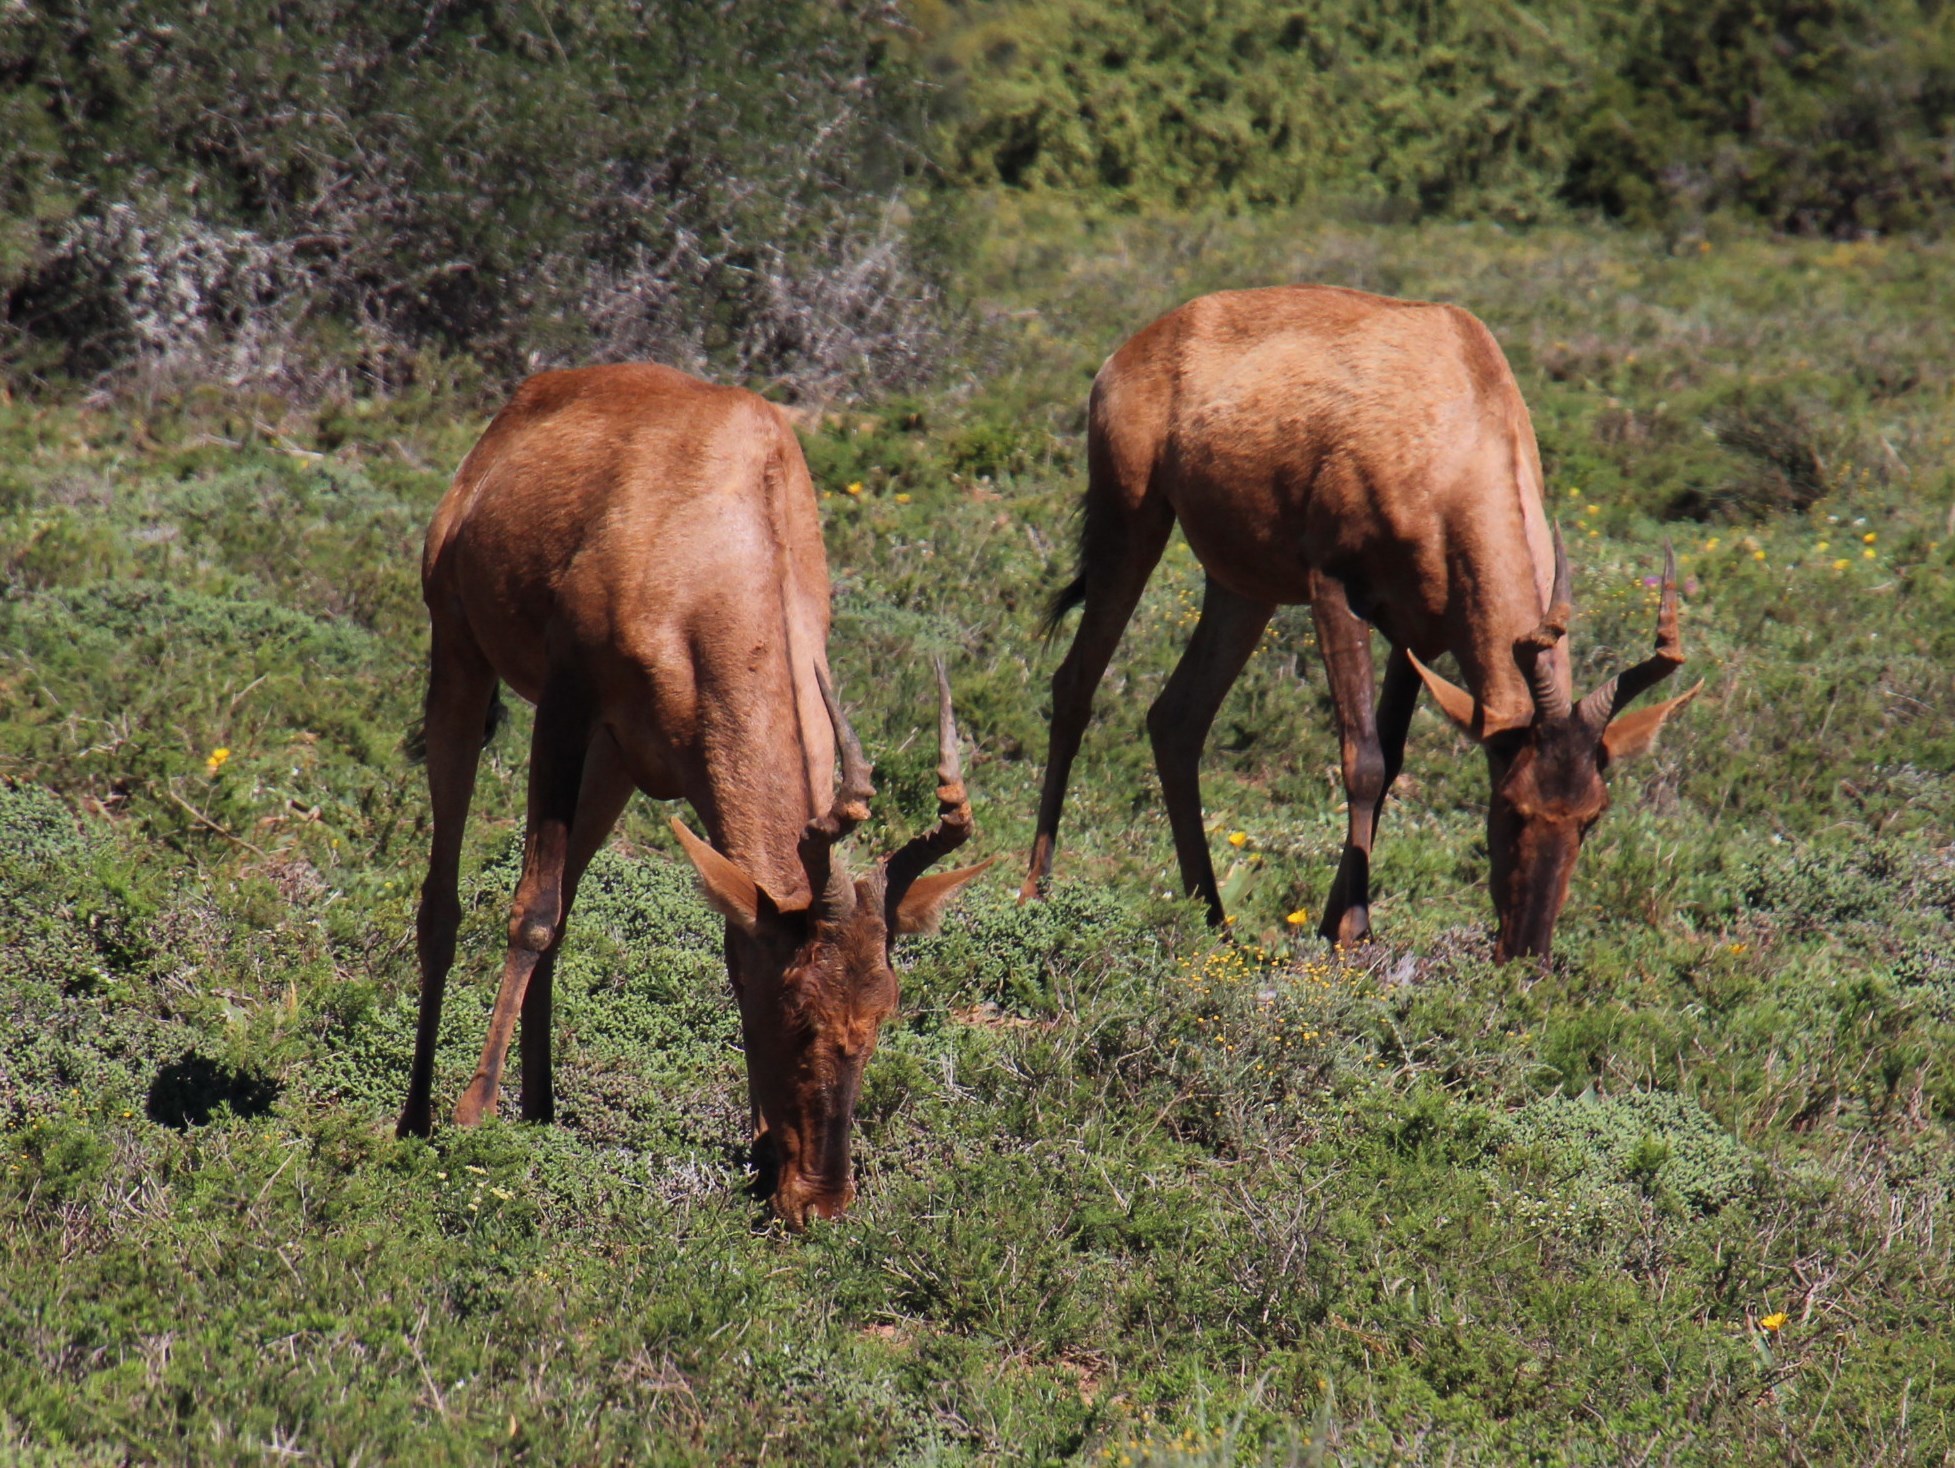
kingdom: Animalia
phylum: Chordata
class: Mammalia
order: Artiodactyla
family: Bovidae
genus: Alcelaphus
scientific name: Alcelaphus caama
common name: Red hartebeest
